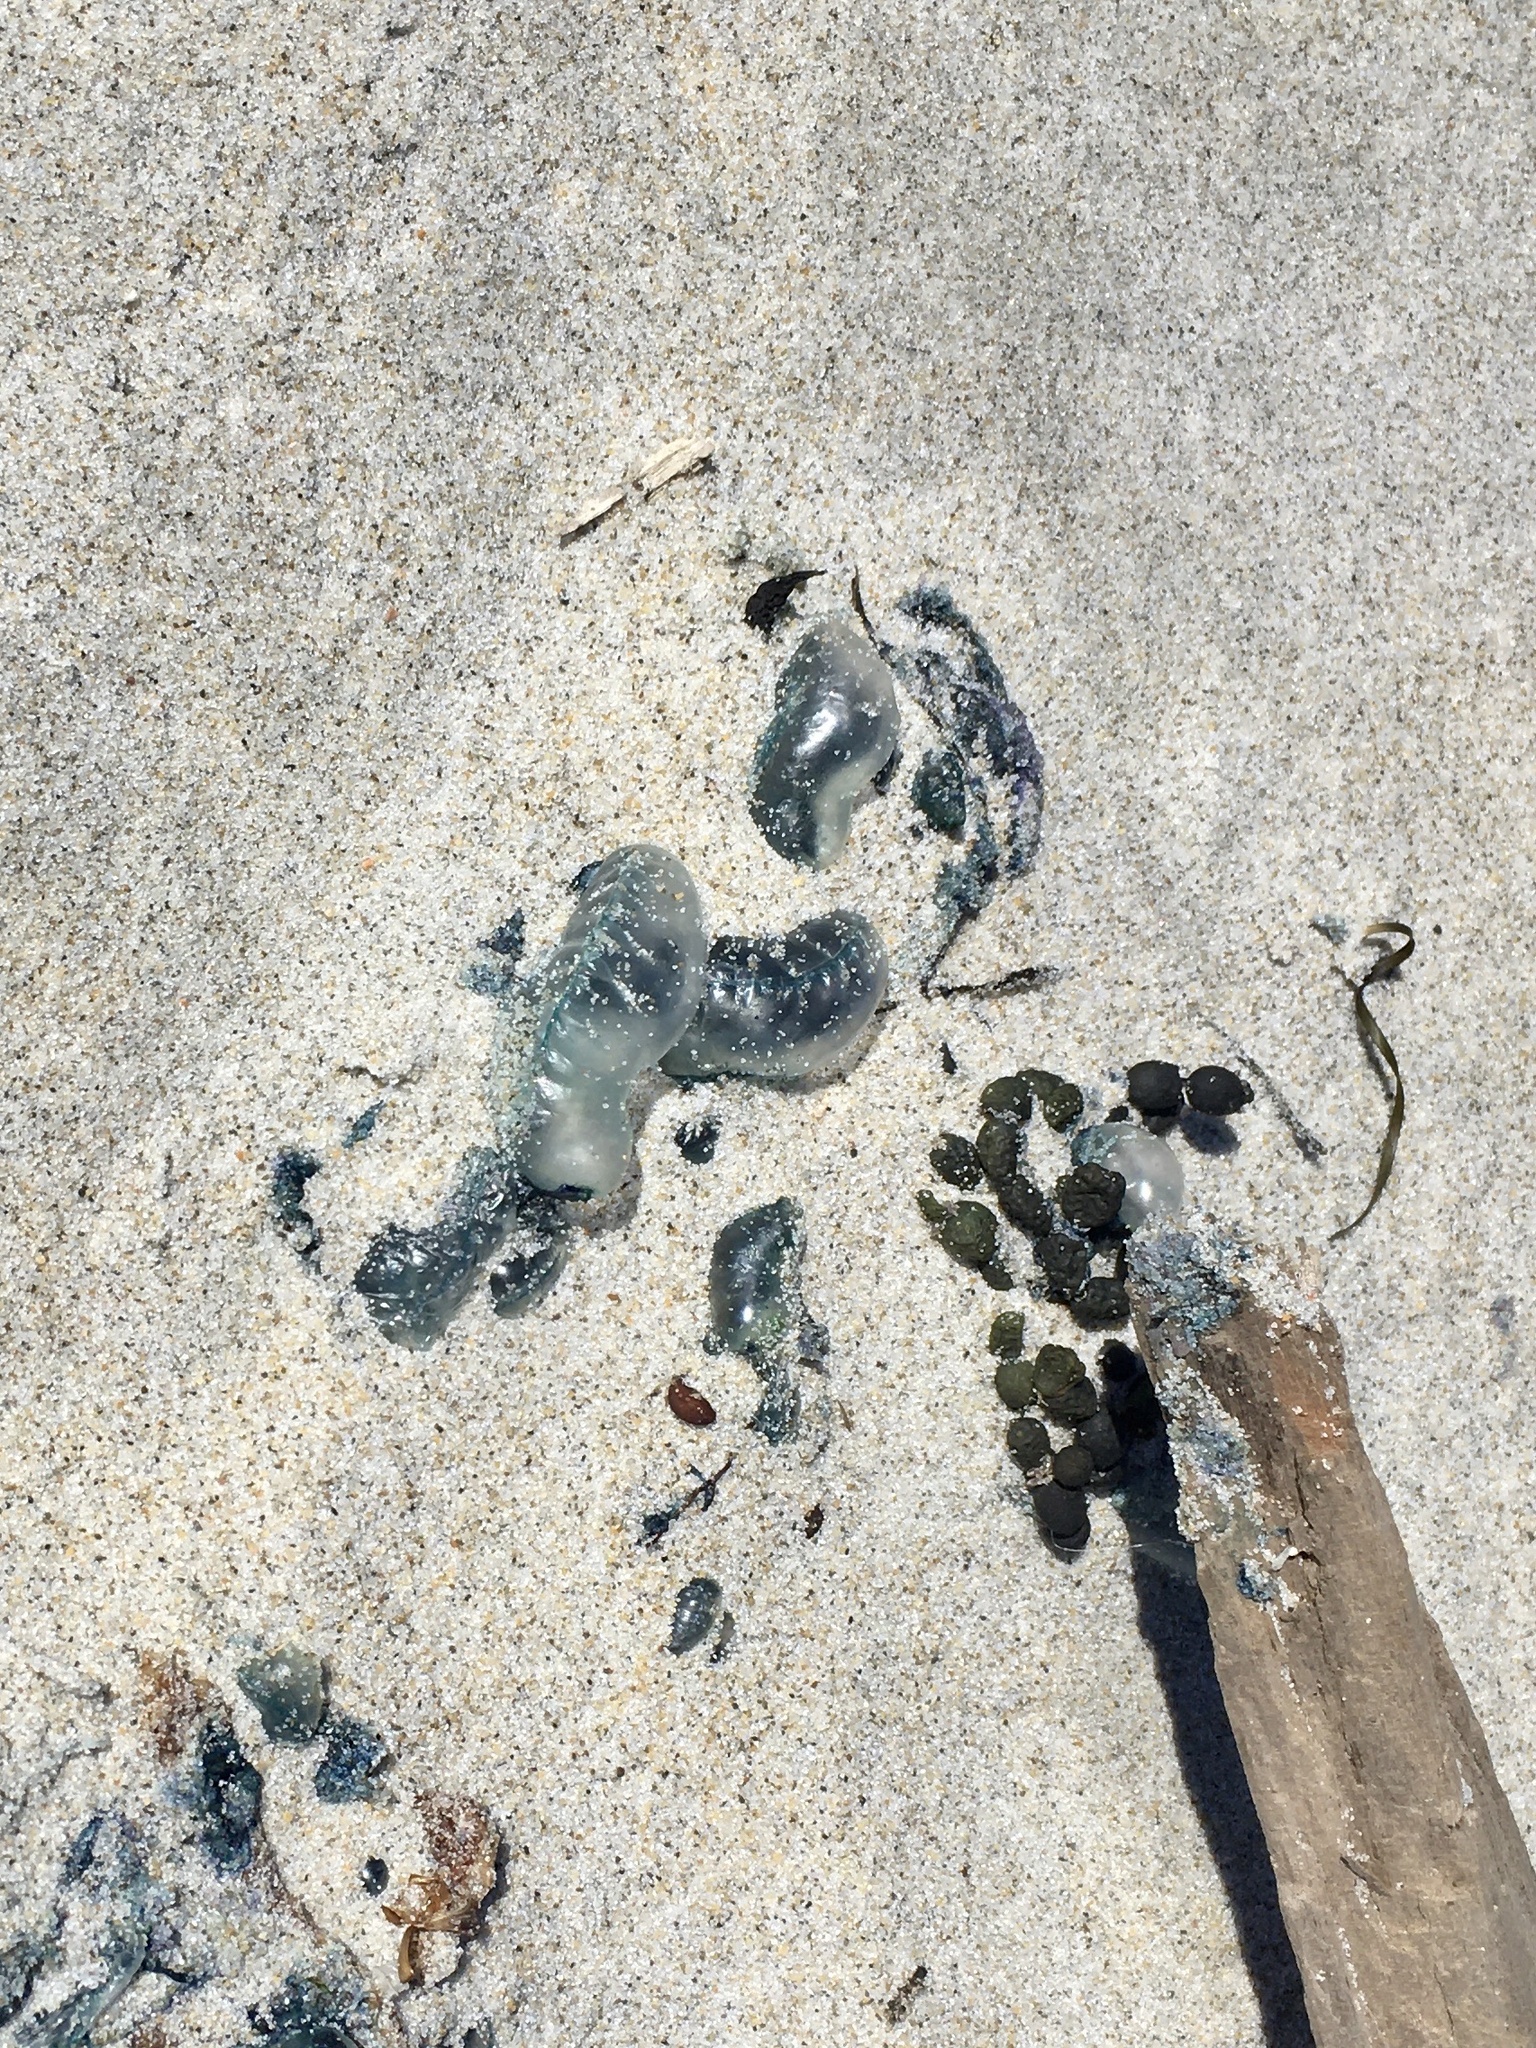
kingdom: Animalia
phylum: Cnidaria
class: Hydrozoa
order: Siphonophorae
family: Physaliidae
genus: Physalia
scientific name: Physalia physalis
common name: Portuguese man-of-war
